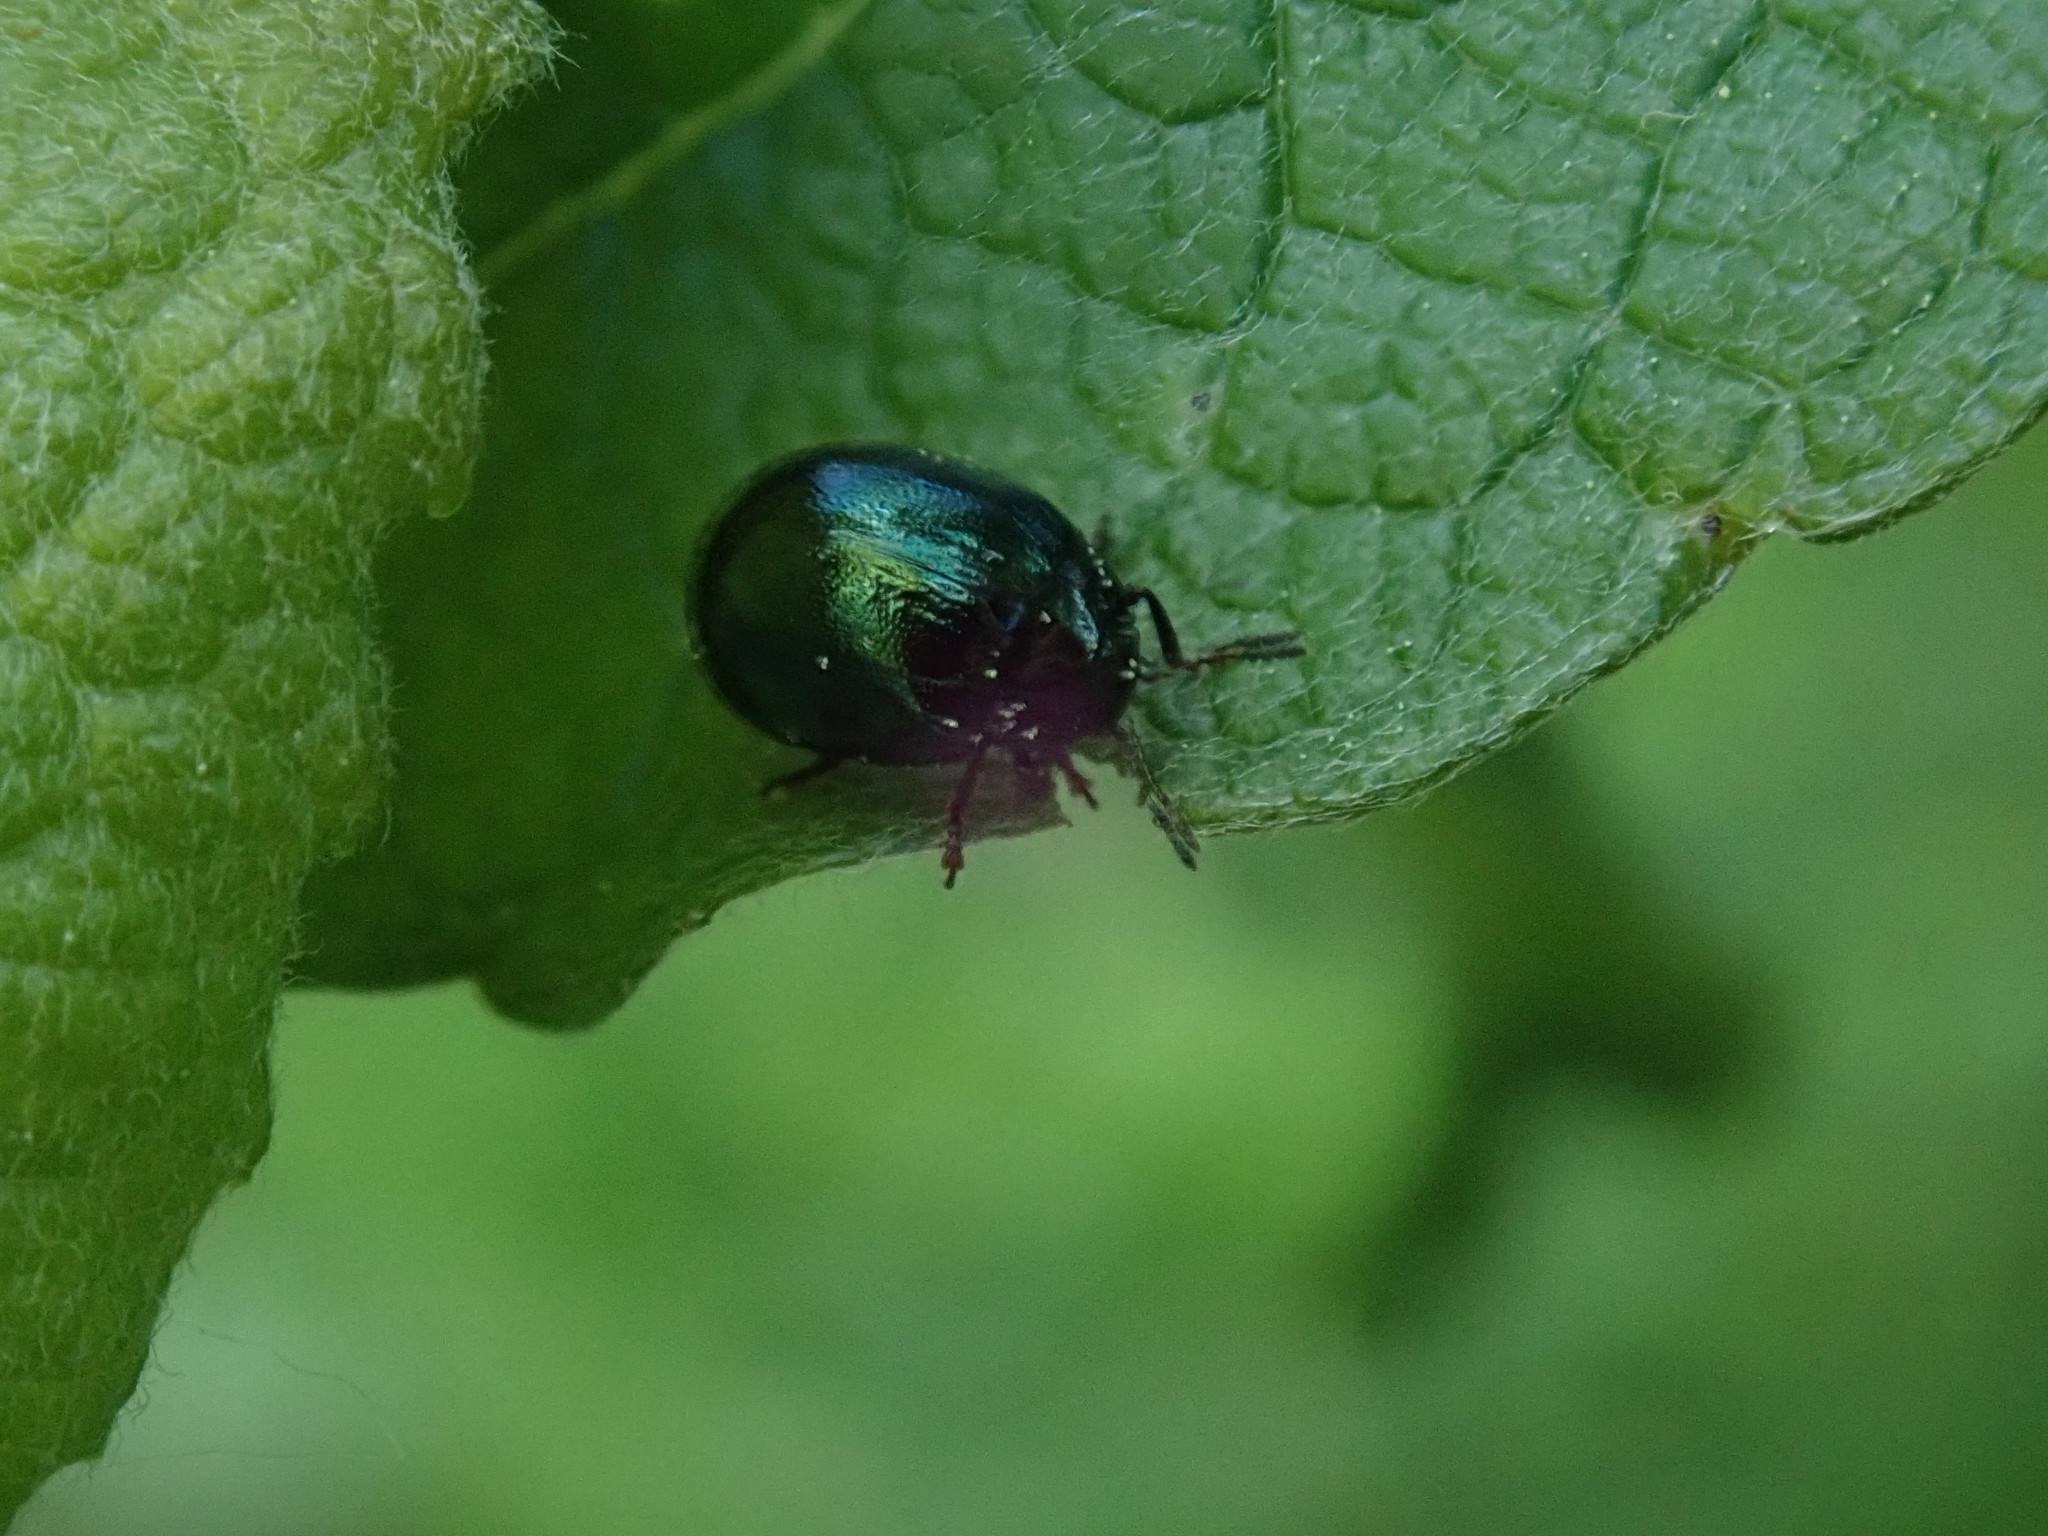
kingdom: Animalia
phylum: Arthropoda
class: Insecta
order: Coleoptera
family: Chrysomelidae
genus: Plagiodera
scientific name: Plagiodera versicolora
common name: Imported willow leaf beetle
